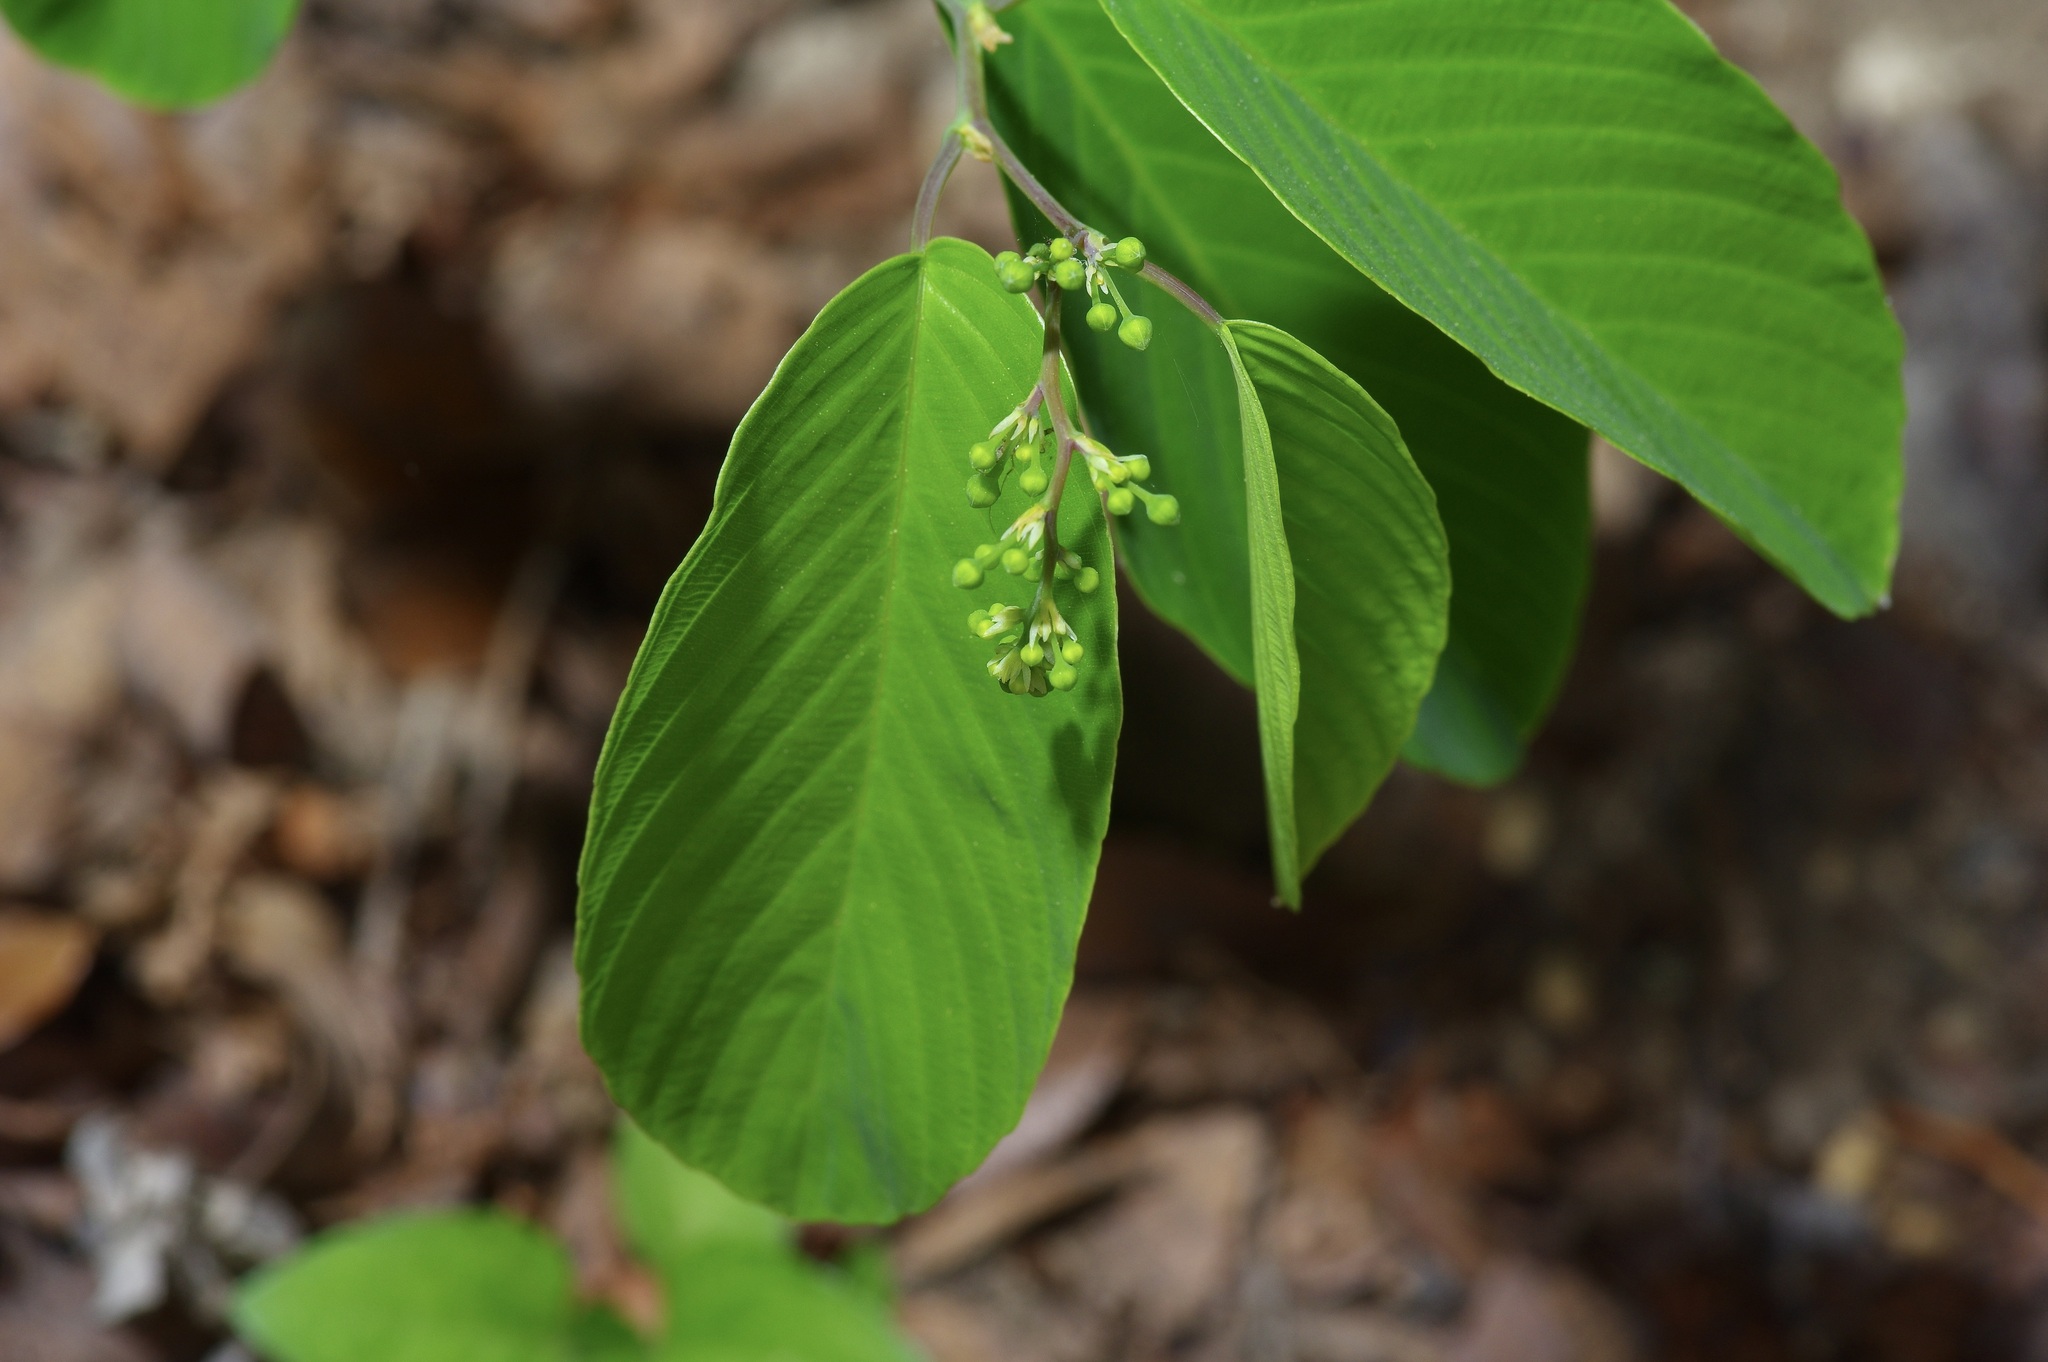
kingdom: Plantae
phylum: Tracheophyta
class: Magnoliopsida
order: Rosales
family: Rhamnaceae
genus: Berchemia
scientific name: Berchemia scandens
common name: Supplejack
